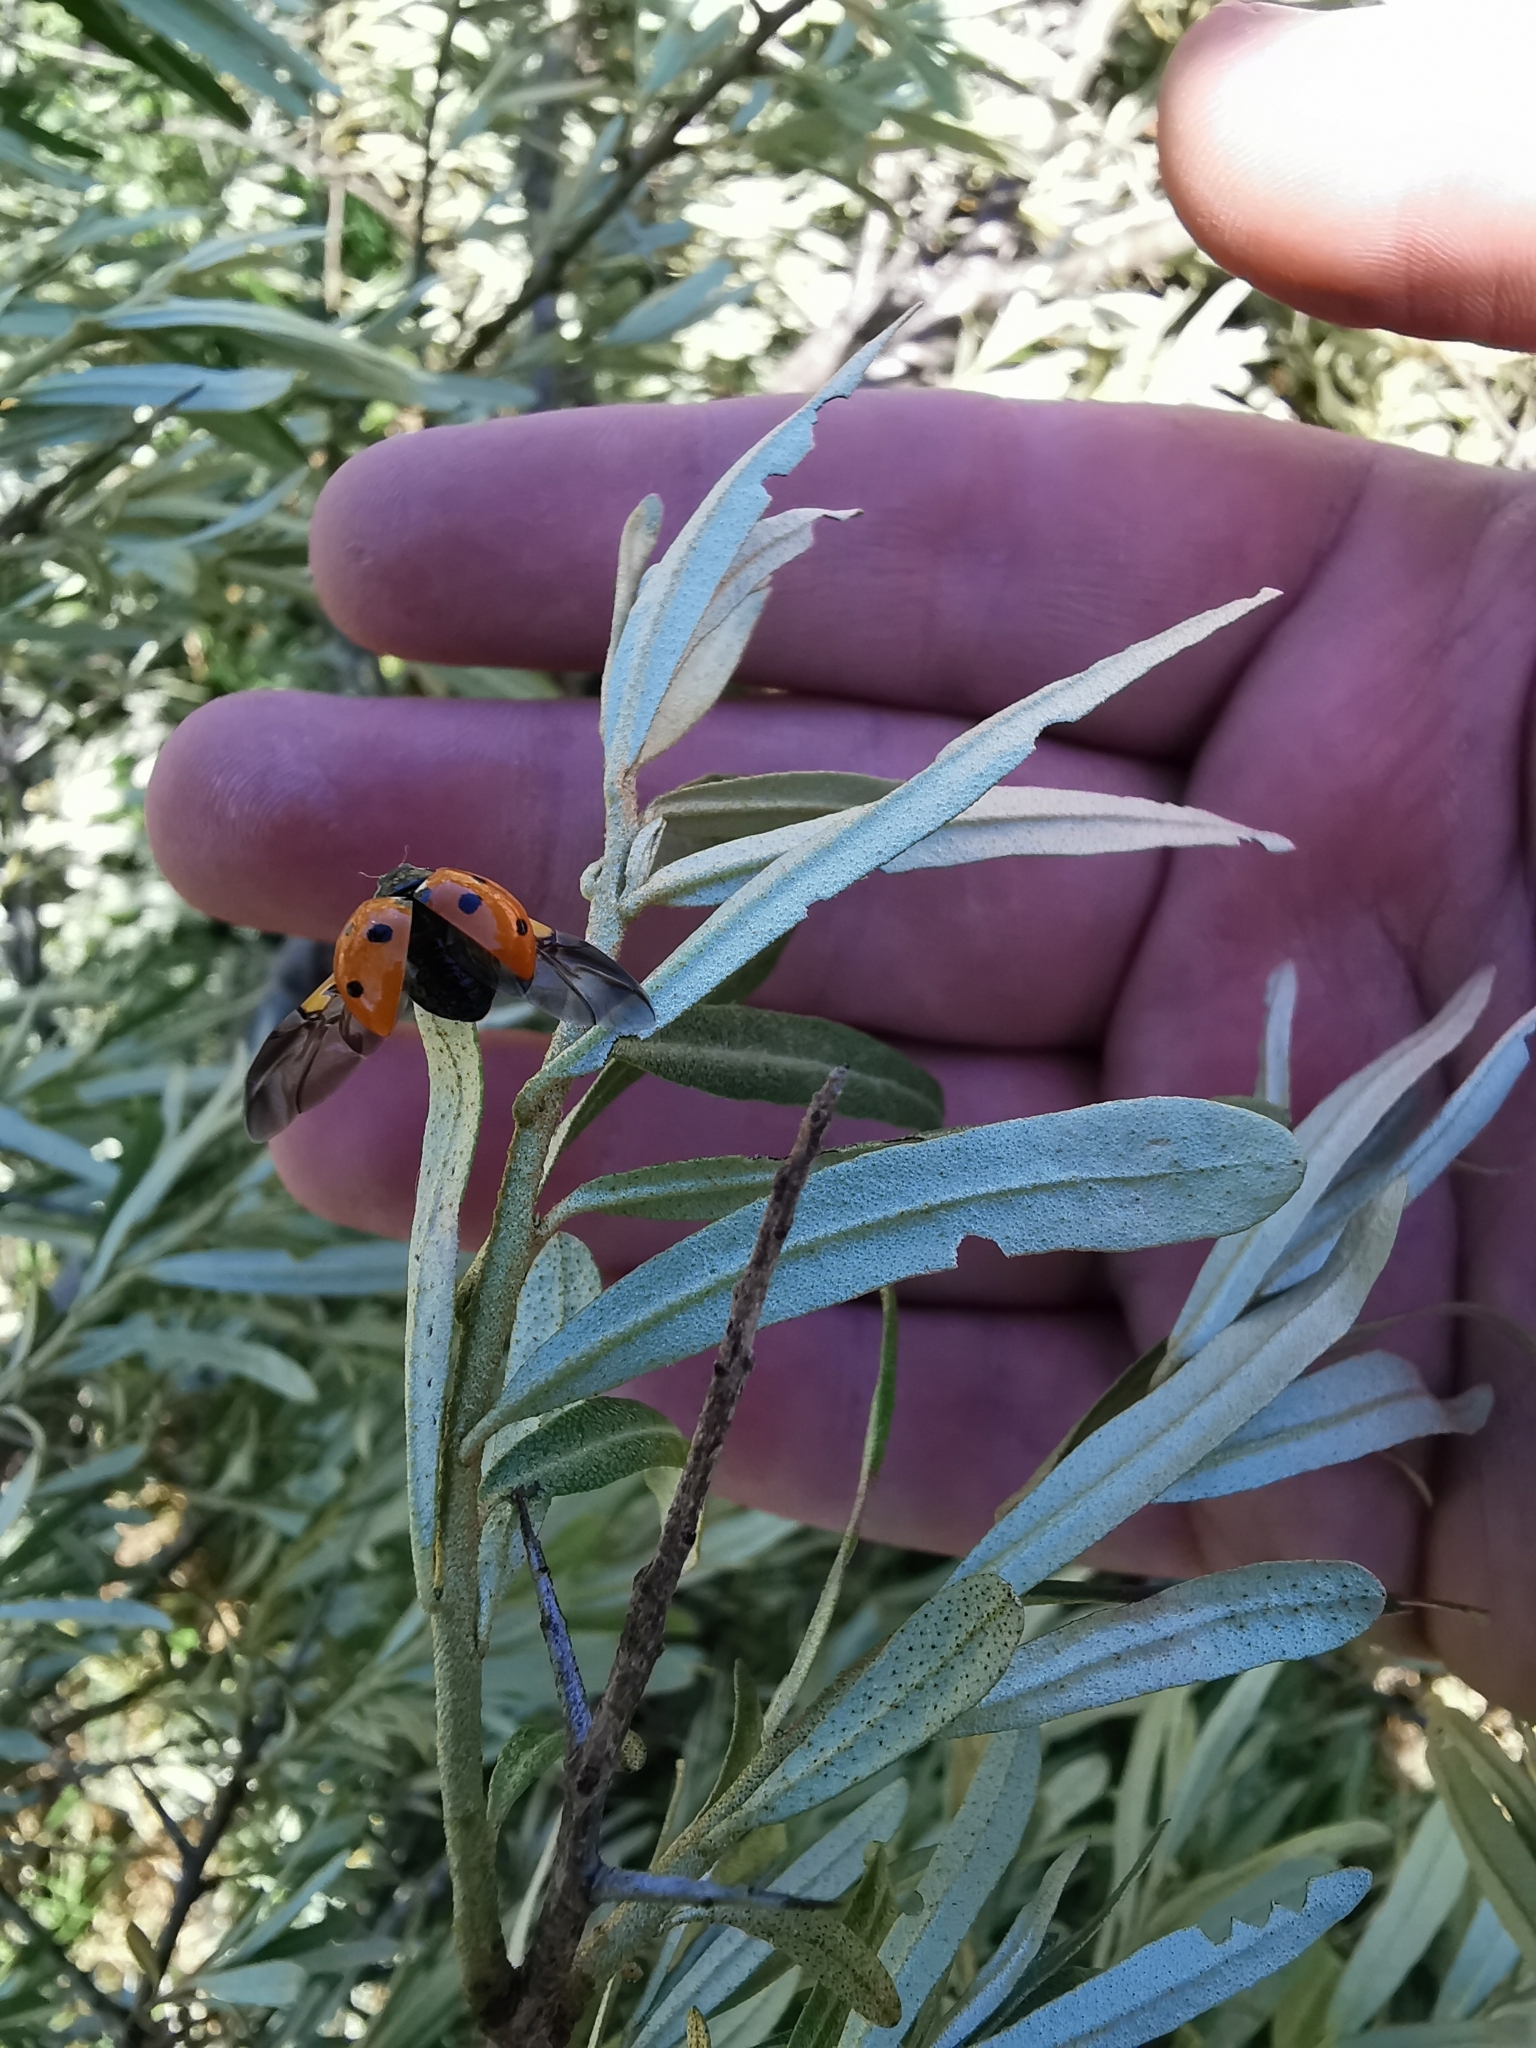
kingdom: Animalia
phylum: Arthropoda
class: Insecta
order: Coleoptera
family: Coccinellidae
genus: Coccinella
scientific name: Coccinella septempunctata
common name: Sevenspotted lady beetle
